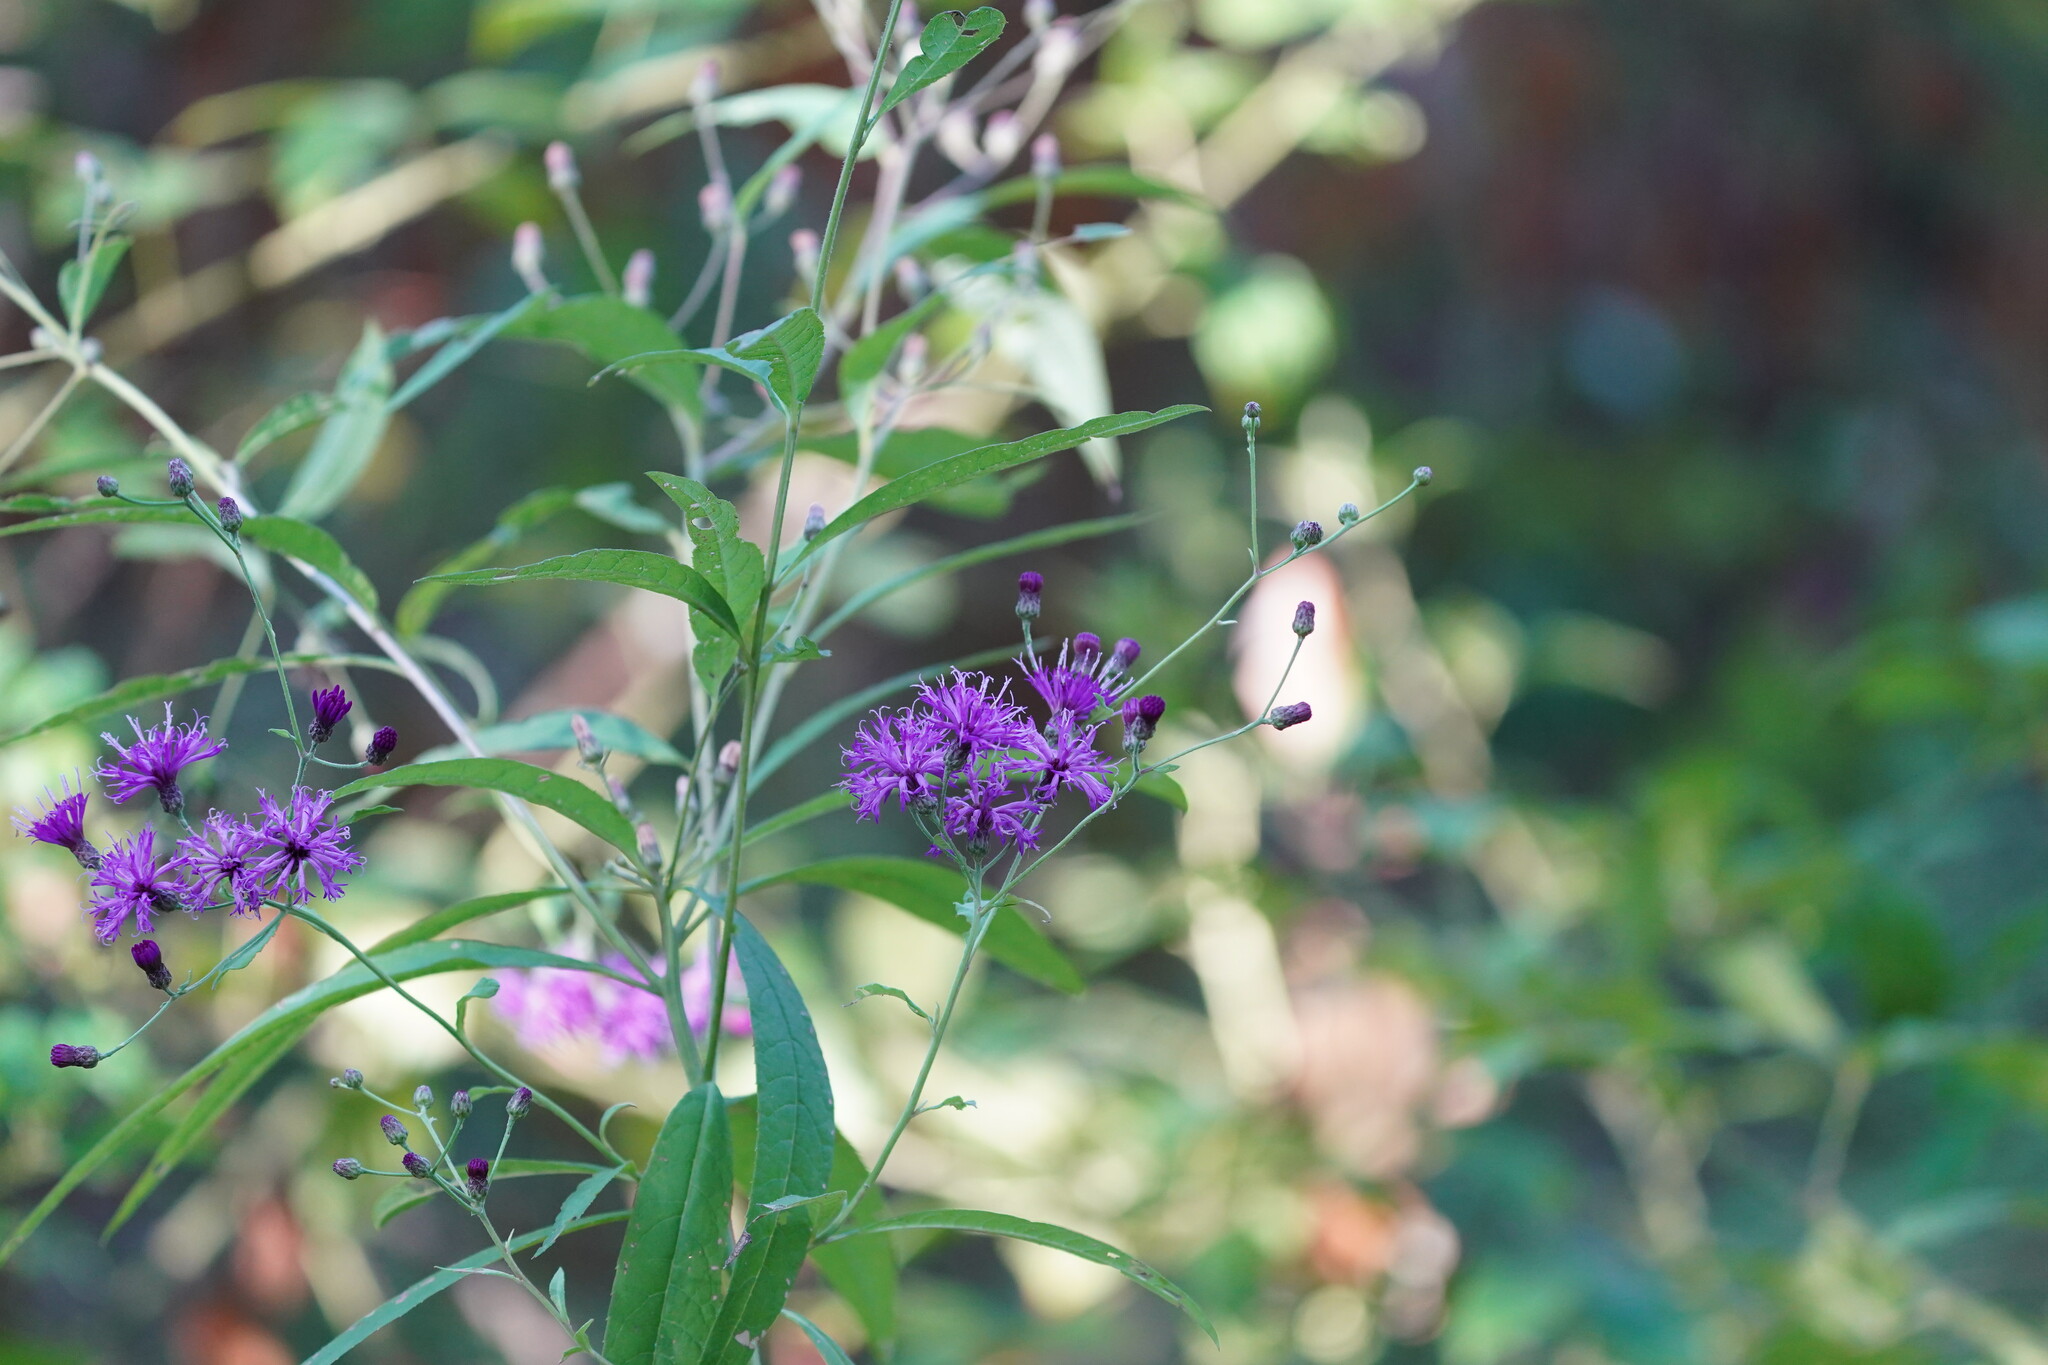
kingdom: Plantae
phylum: Tracheophyta
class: Magnoliopsida
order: Asterales
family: Asteraceae
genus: Vernonia
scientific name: Vernonia gigantea
